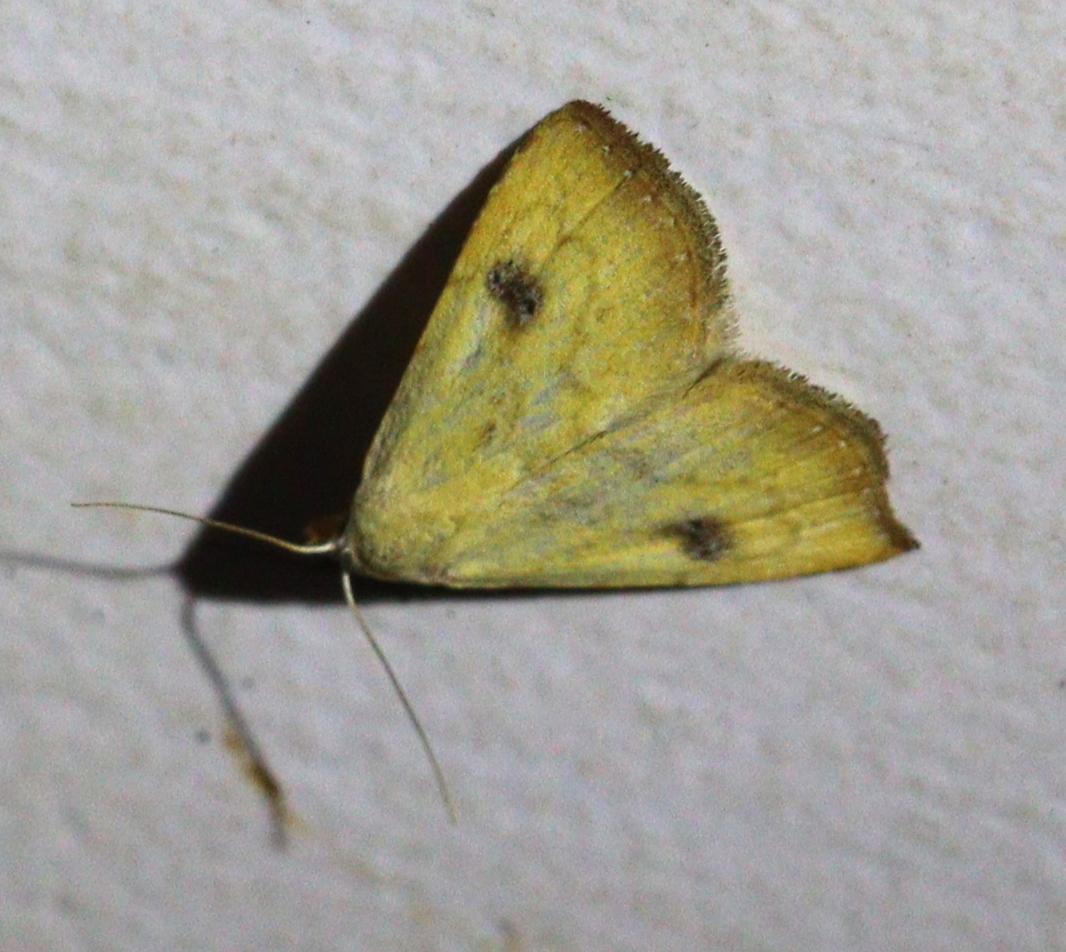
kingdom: Animalia
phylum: Arthropoda
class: Insecta
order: Lepidoptera
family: Erebidae
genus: Rivula
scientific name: Rivula sericealis
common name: Straw dot
